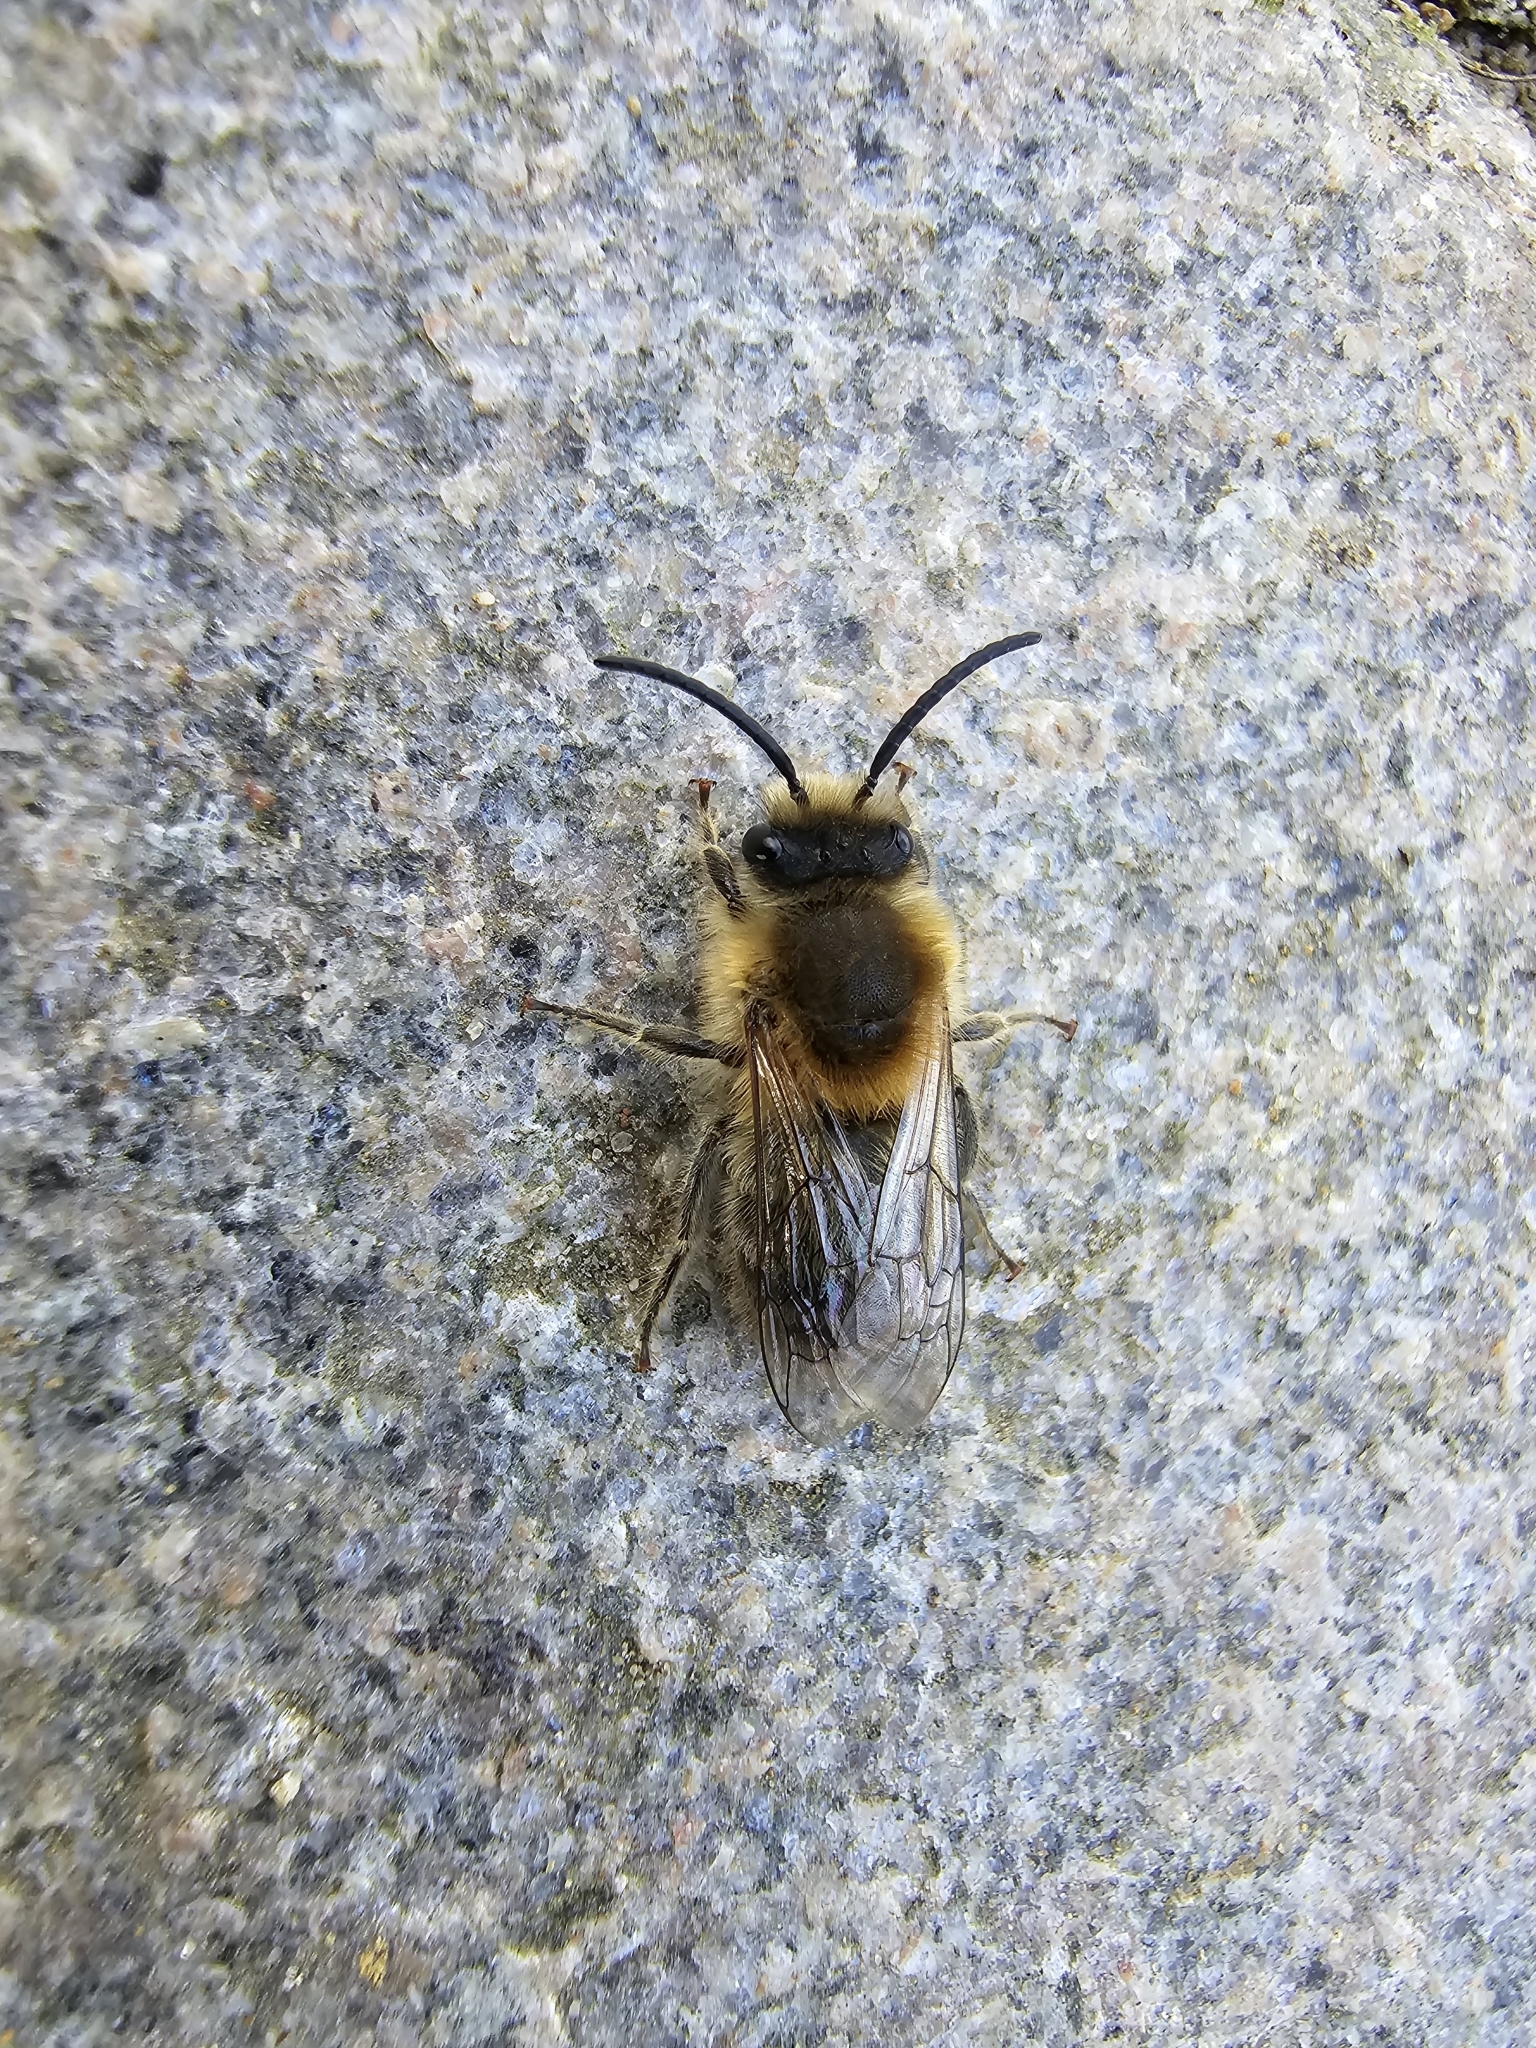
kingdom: Animalia
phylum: Arthropoda
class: Insecta
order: Hymenoptera
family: Colletidae
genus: Colletes
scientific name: Colletes cunicularius
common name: Early colletes
